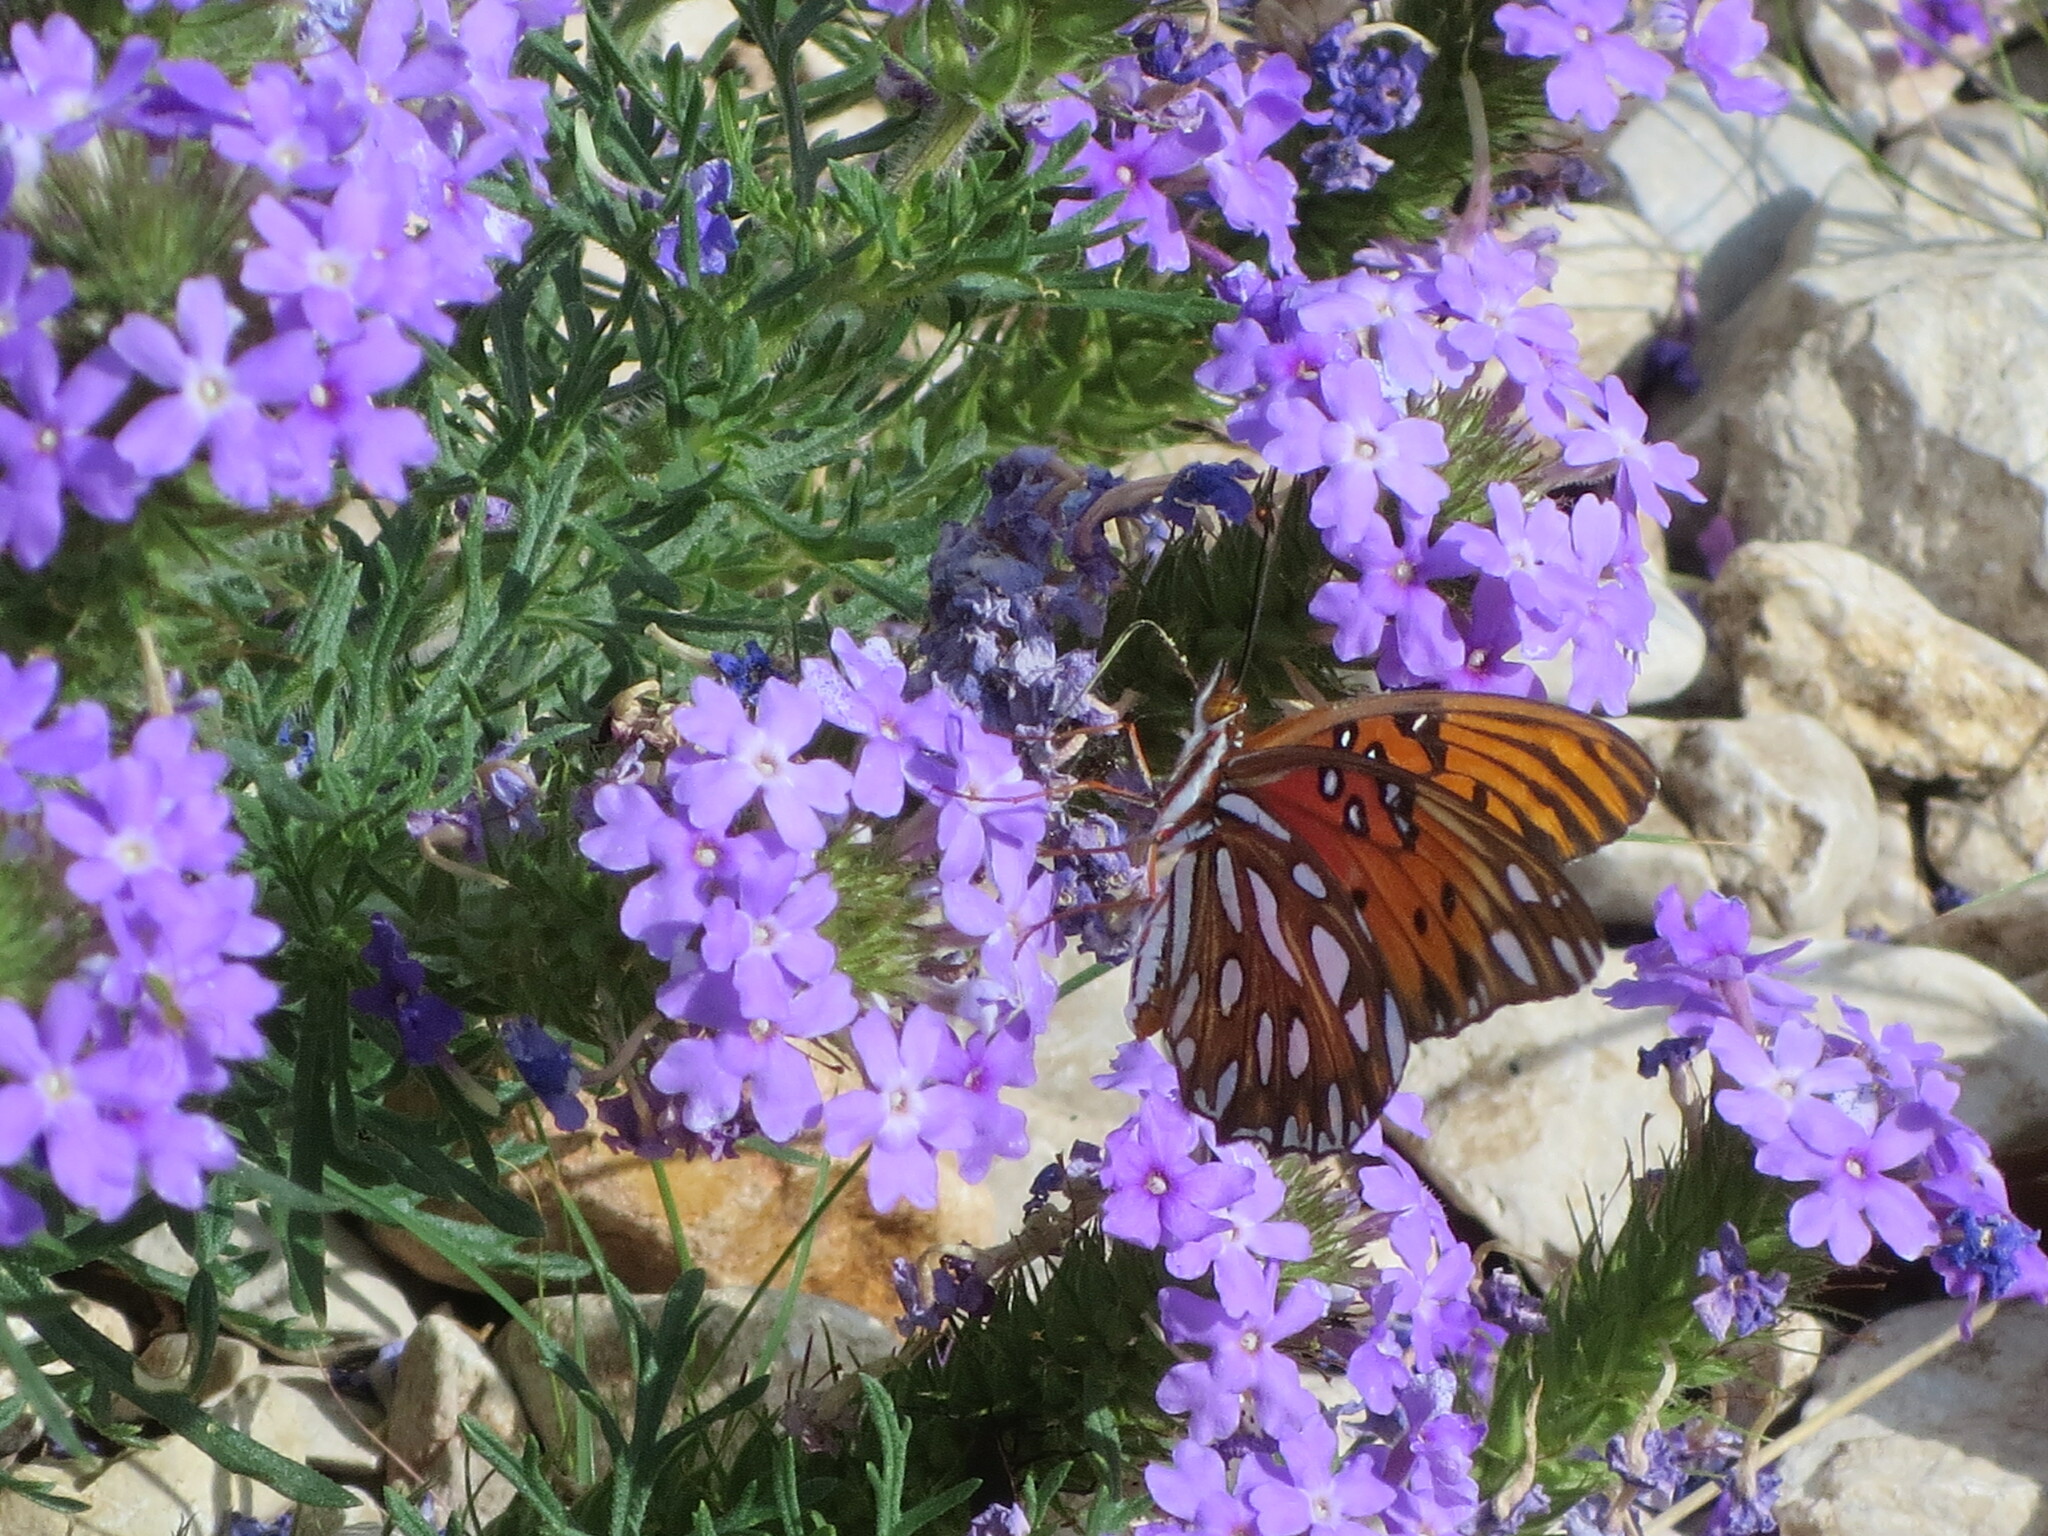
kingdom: Animalia
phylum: Arthropoda
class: Insecta
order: Lepidoptera
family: Nymphalidae
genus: Dione
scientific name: Dione vanillae
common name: Gulf fritillary
